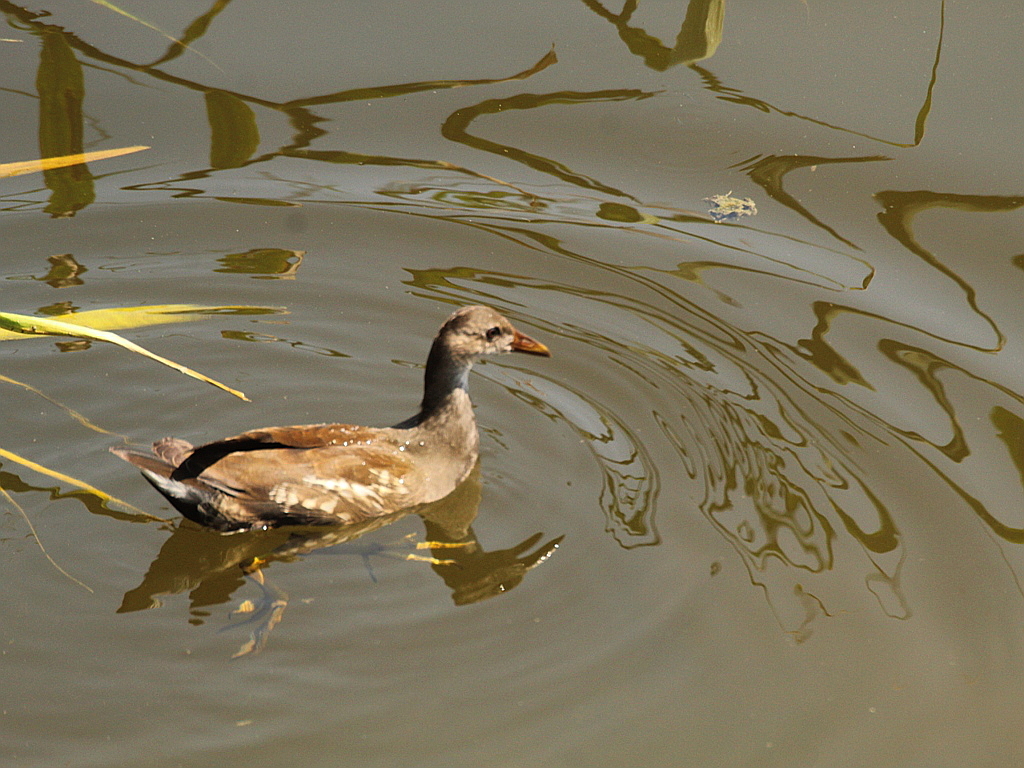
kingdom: Animalia
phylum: Chordata
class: Aves
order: Gruiformes
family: Rallidae
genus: Gallinula
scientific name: Gallinula chloropus
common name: Common moorhen
